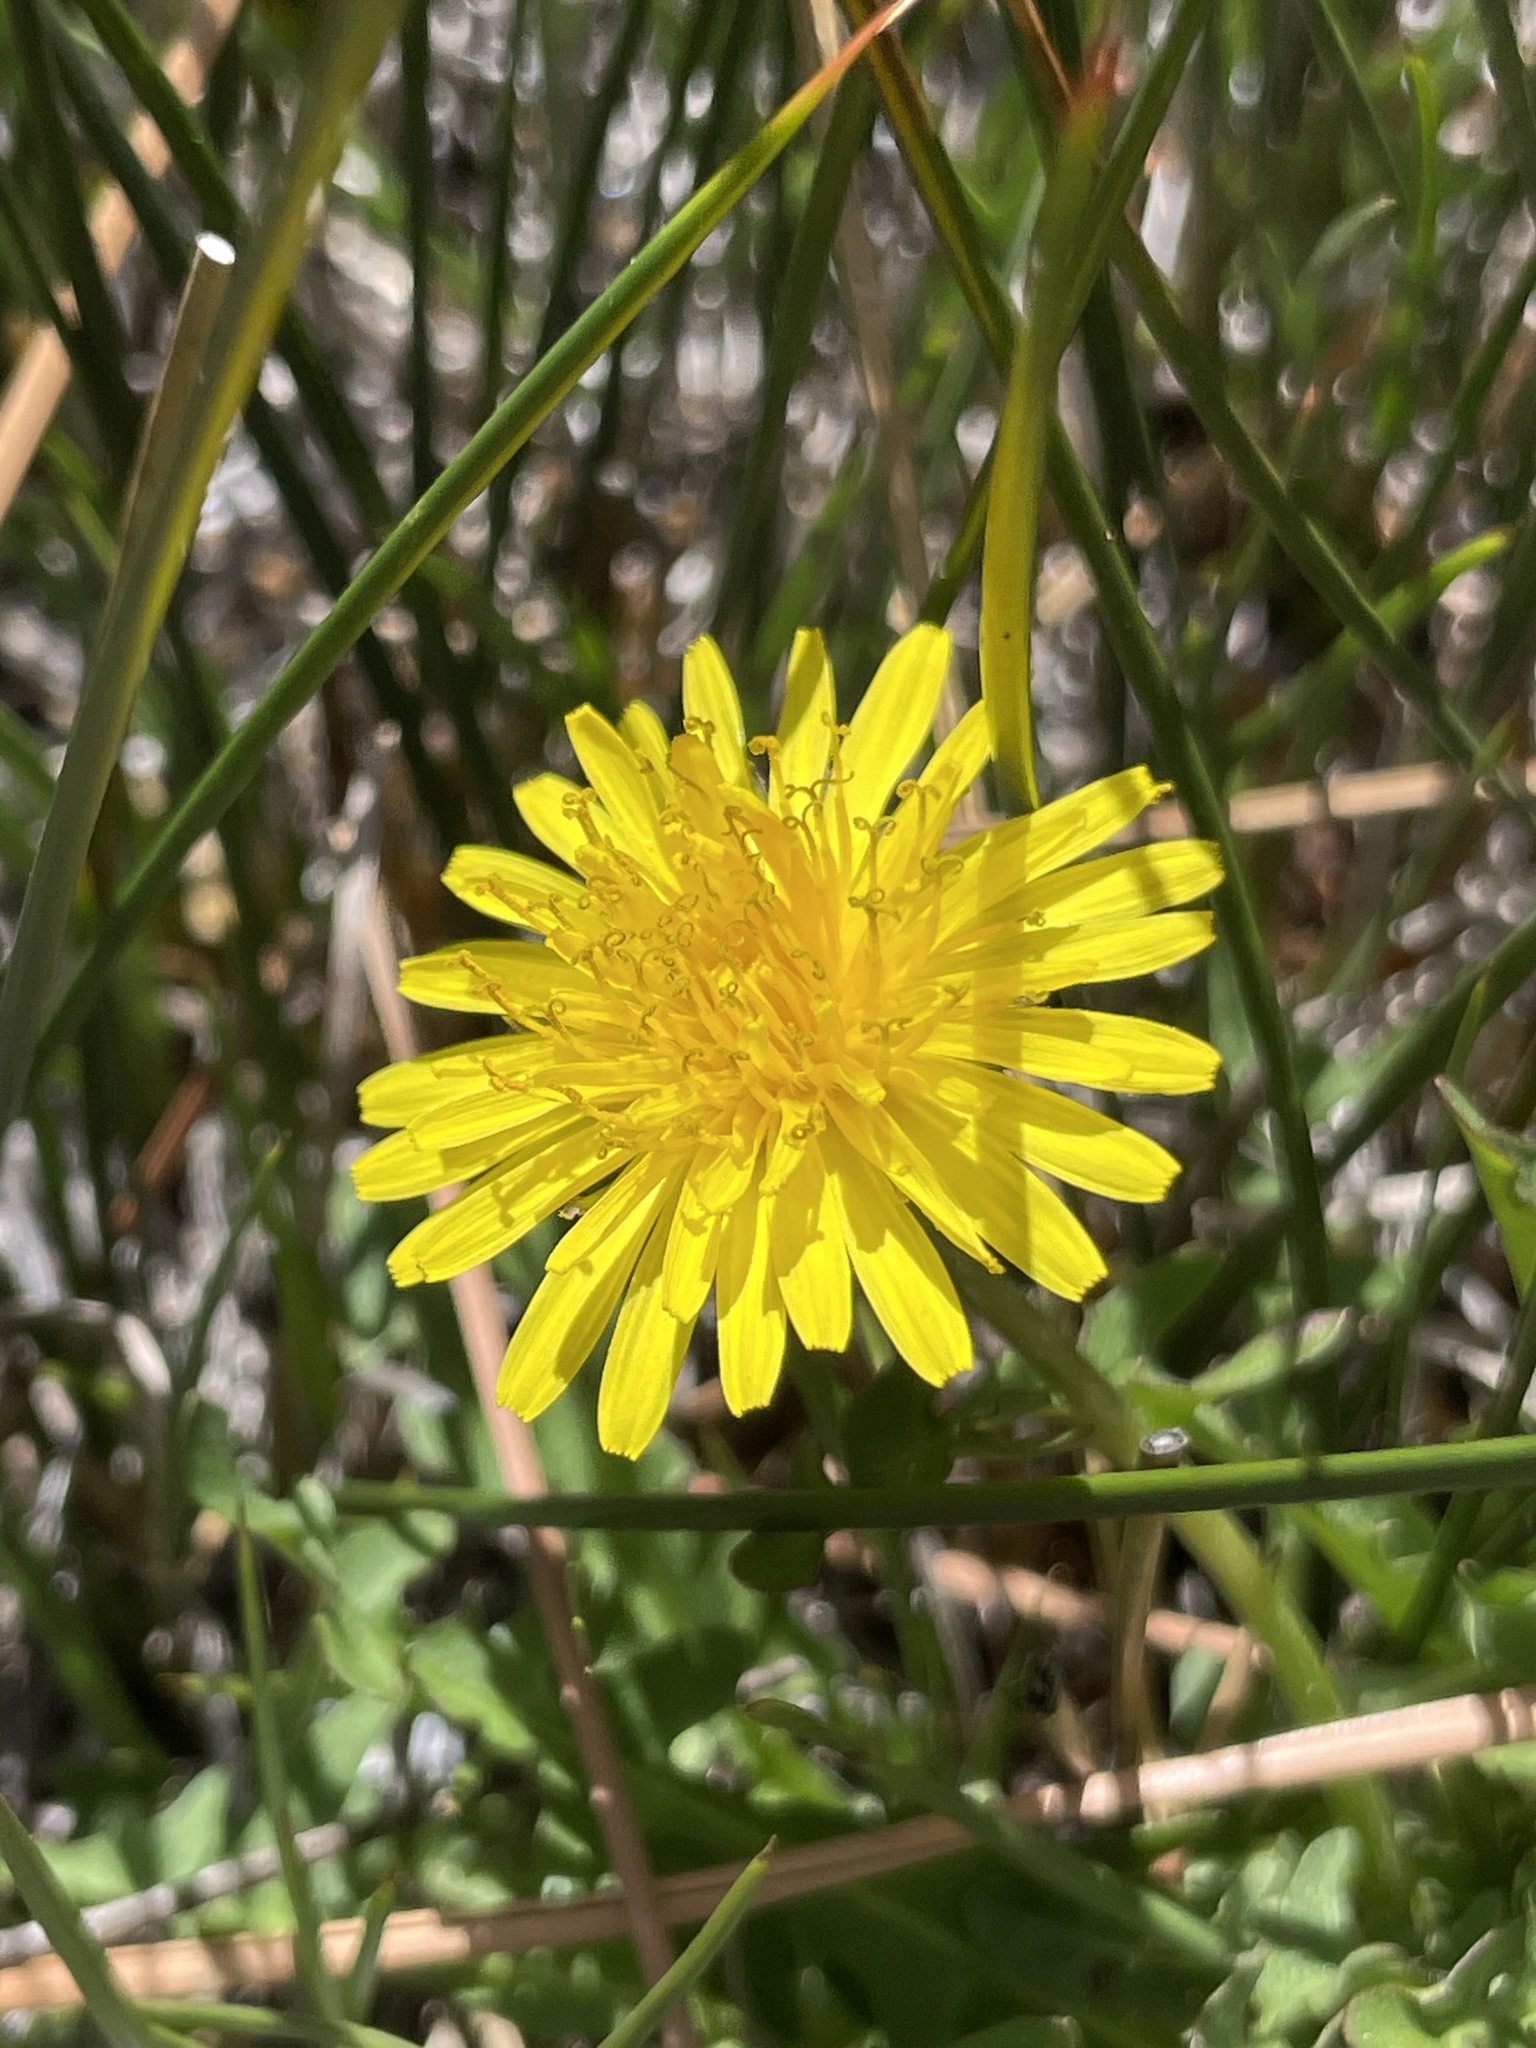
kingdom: Plantae
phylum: Tracheophyta
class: Magnoliopsida
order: Asterales
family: Asteraceae
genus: Taraxacum
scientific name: Taraxacum officinale
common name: Common dandelion
